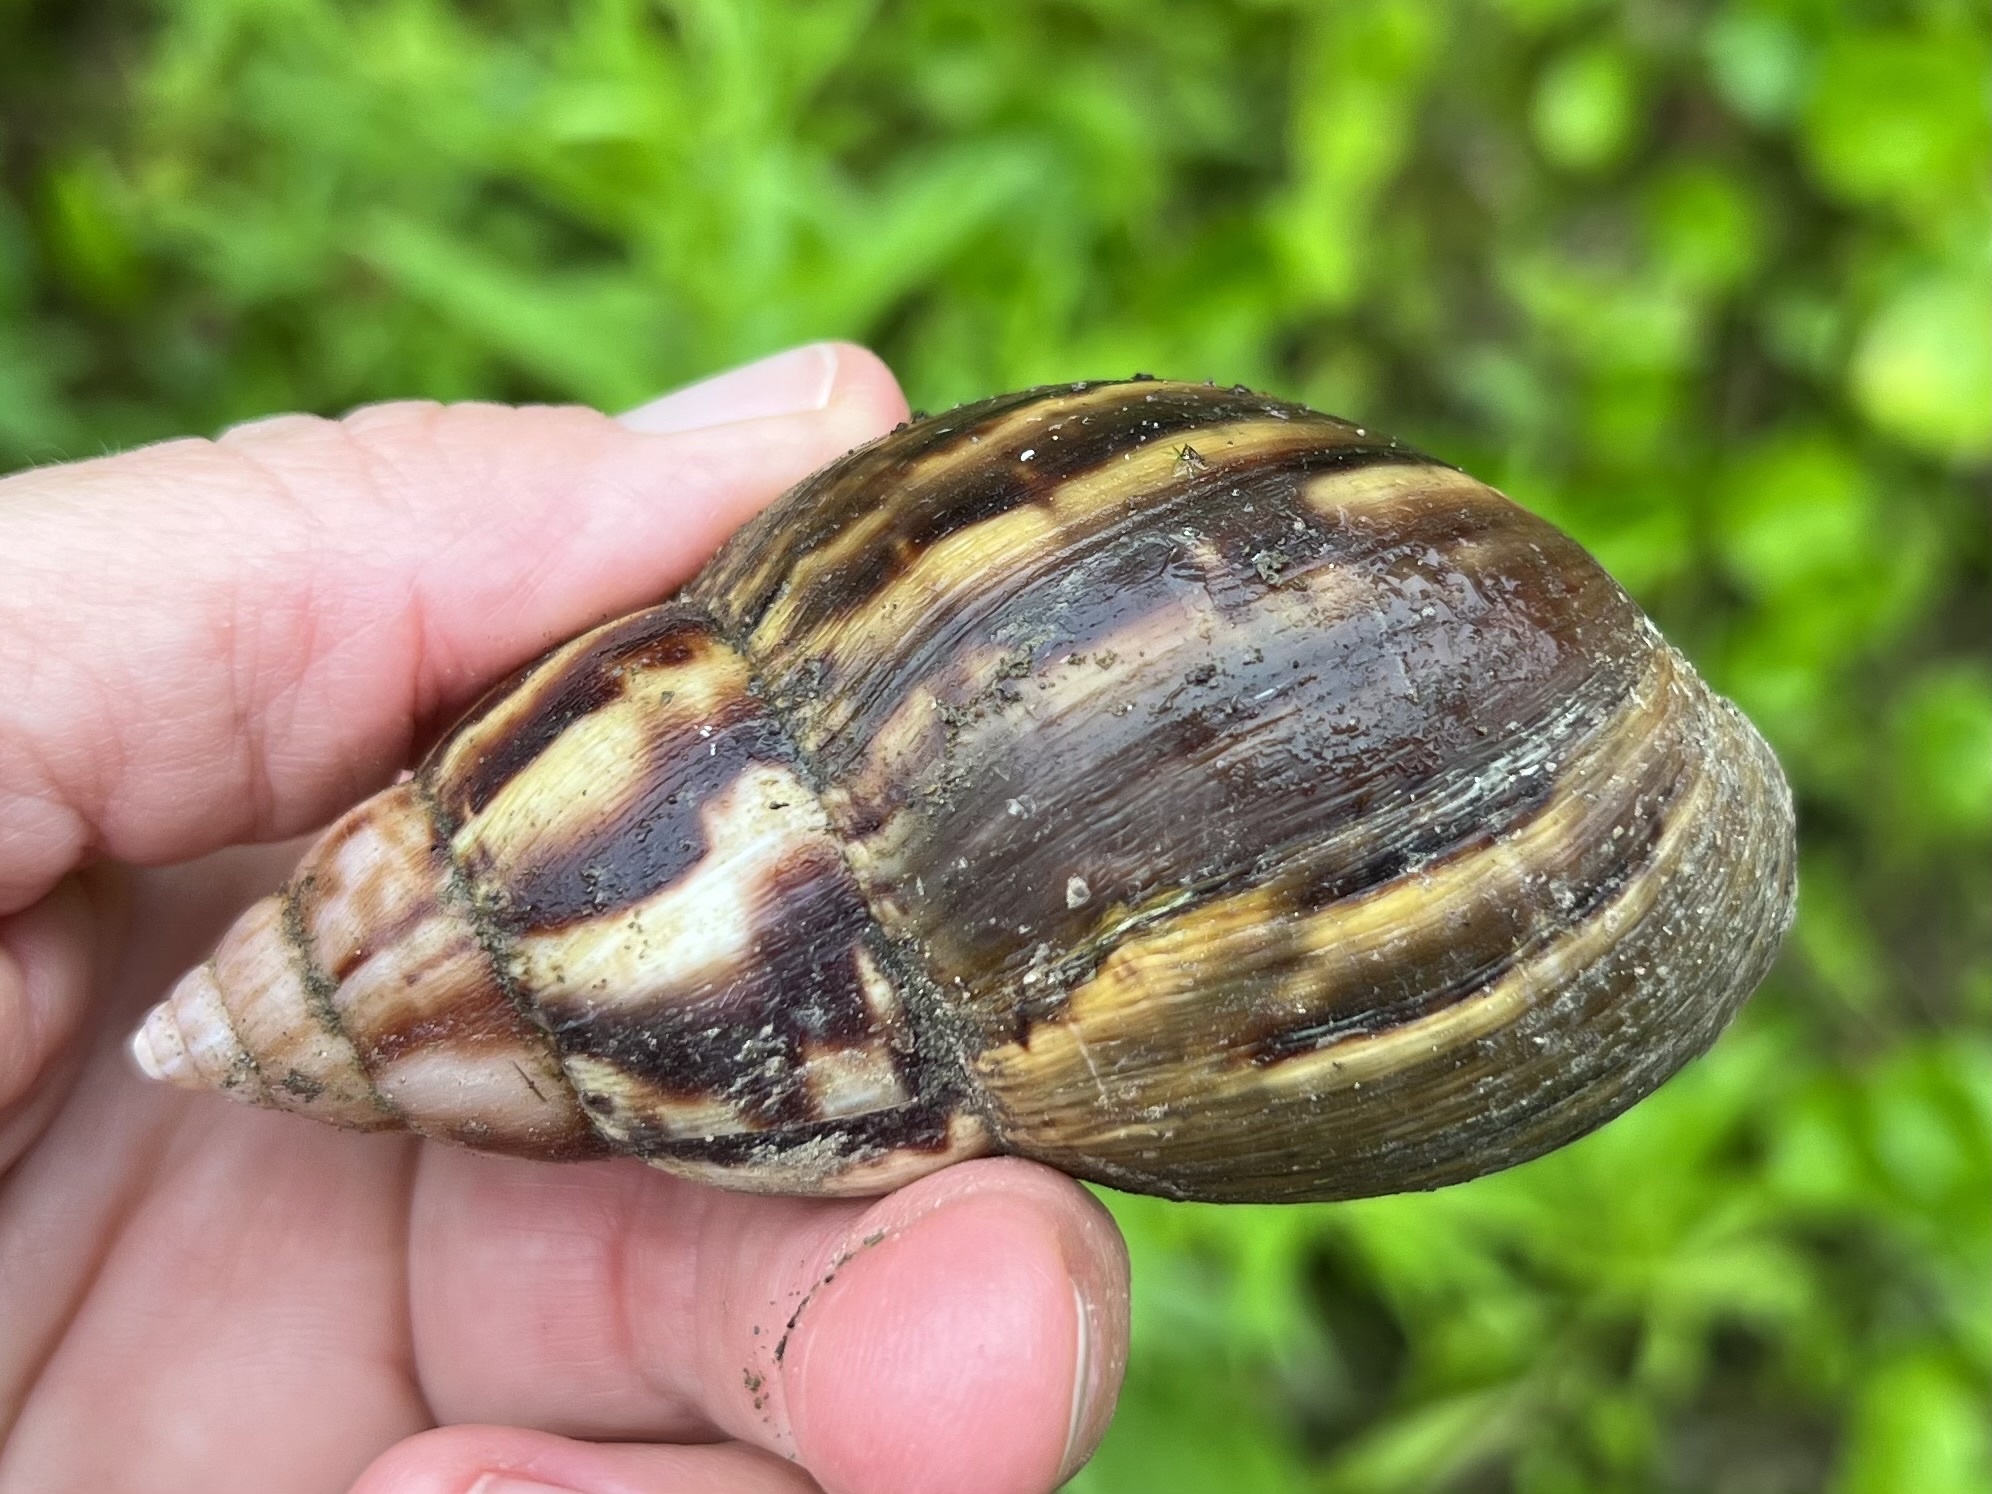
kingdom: Animalia
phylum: Mollusca
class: Gastropoda
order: Stylommatophora
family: Achatinidae
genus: Lissachatina
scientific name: Lissachatina fulica
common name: Giant african snail
